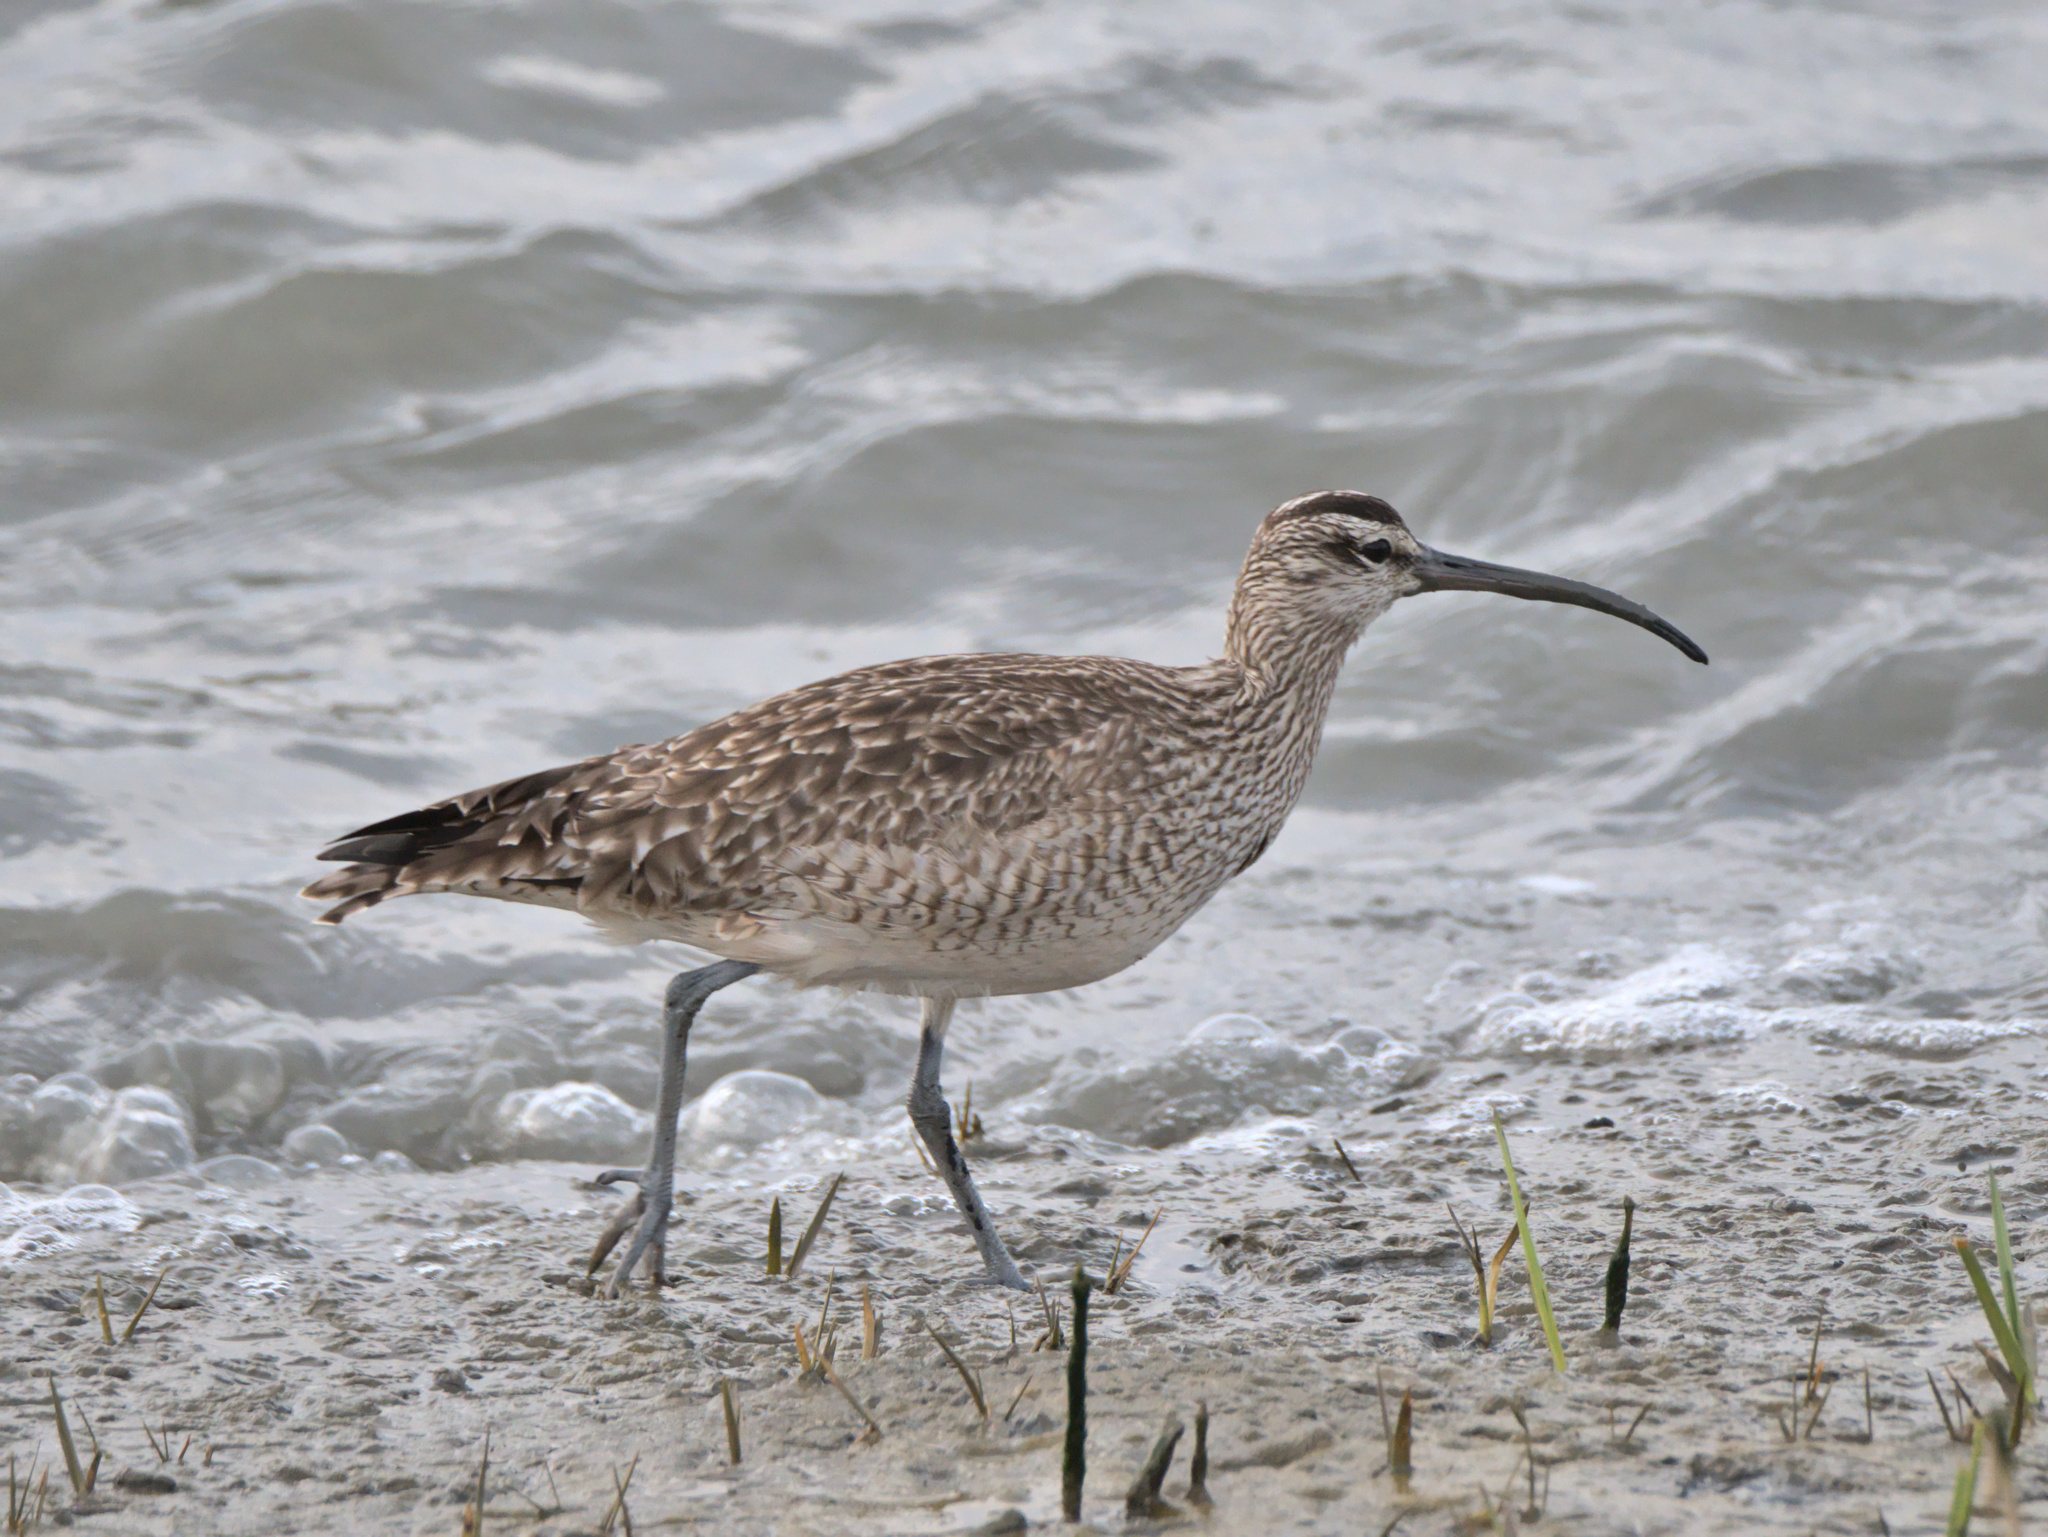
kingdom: Animalia
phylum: Chordata
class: Aves
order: Charadriiformes
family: Scolopacidae
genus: Numenius
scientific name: Numenius phaeopus
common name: Whimbrel
